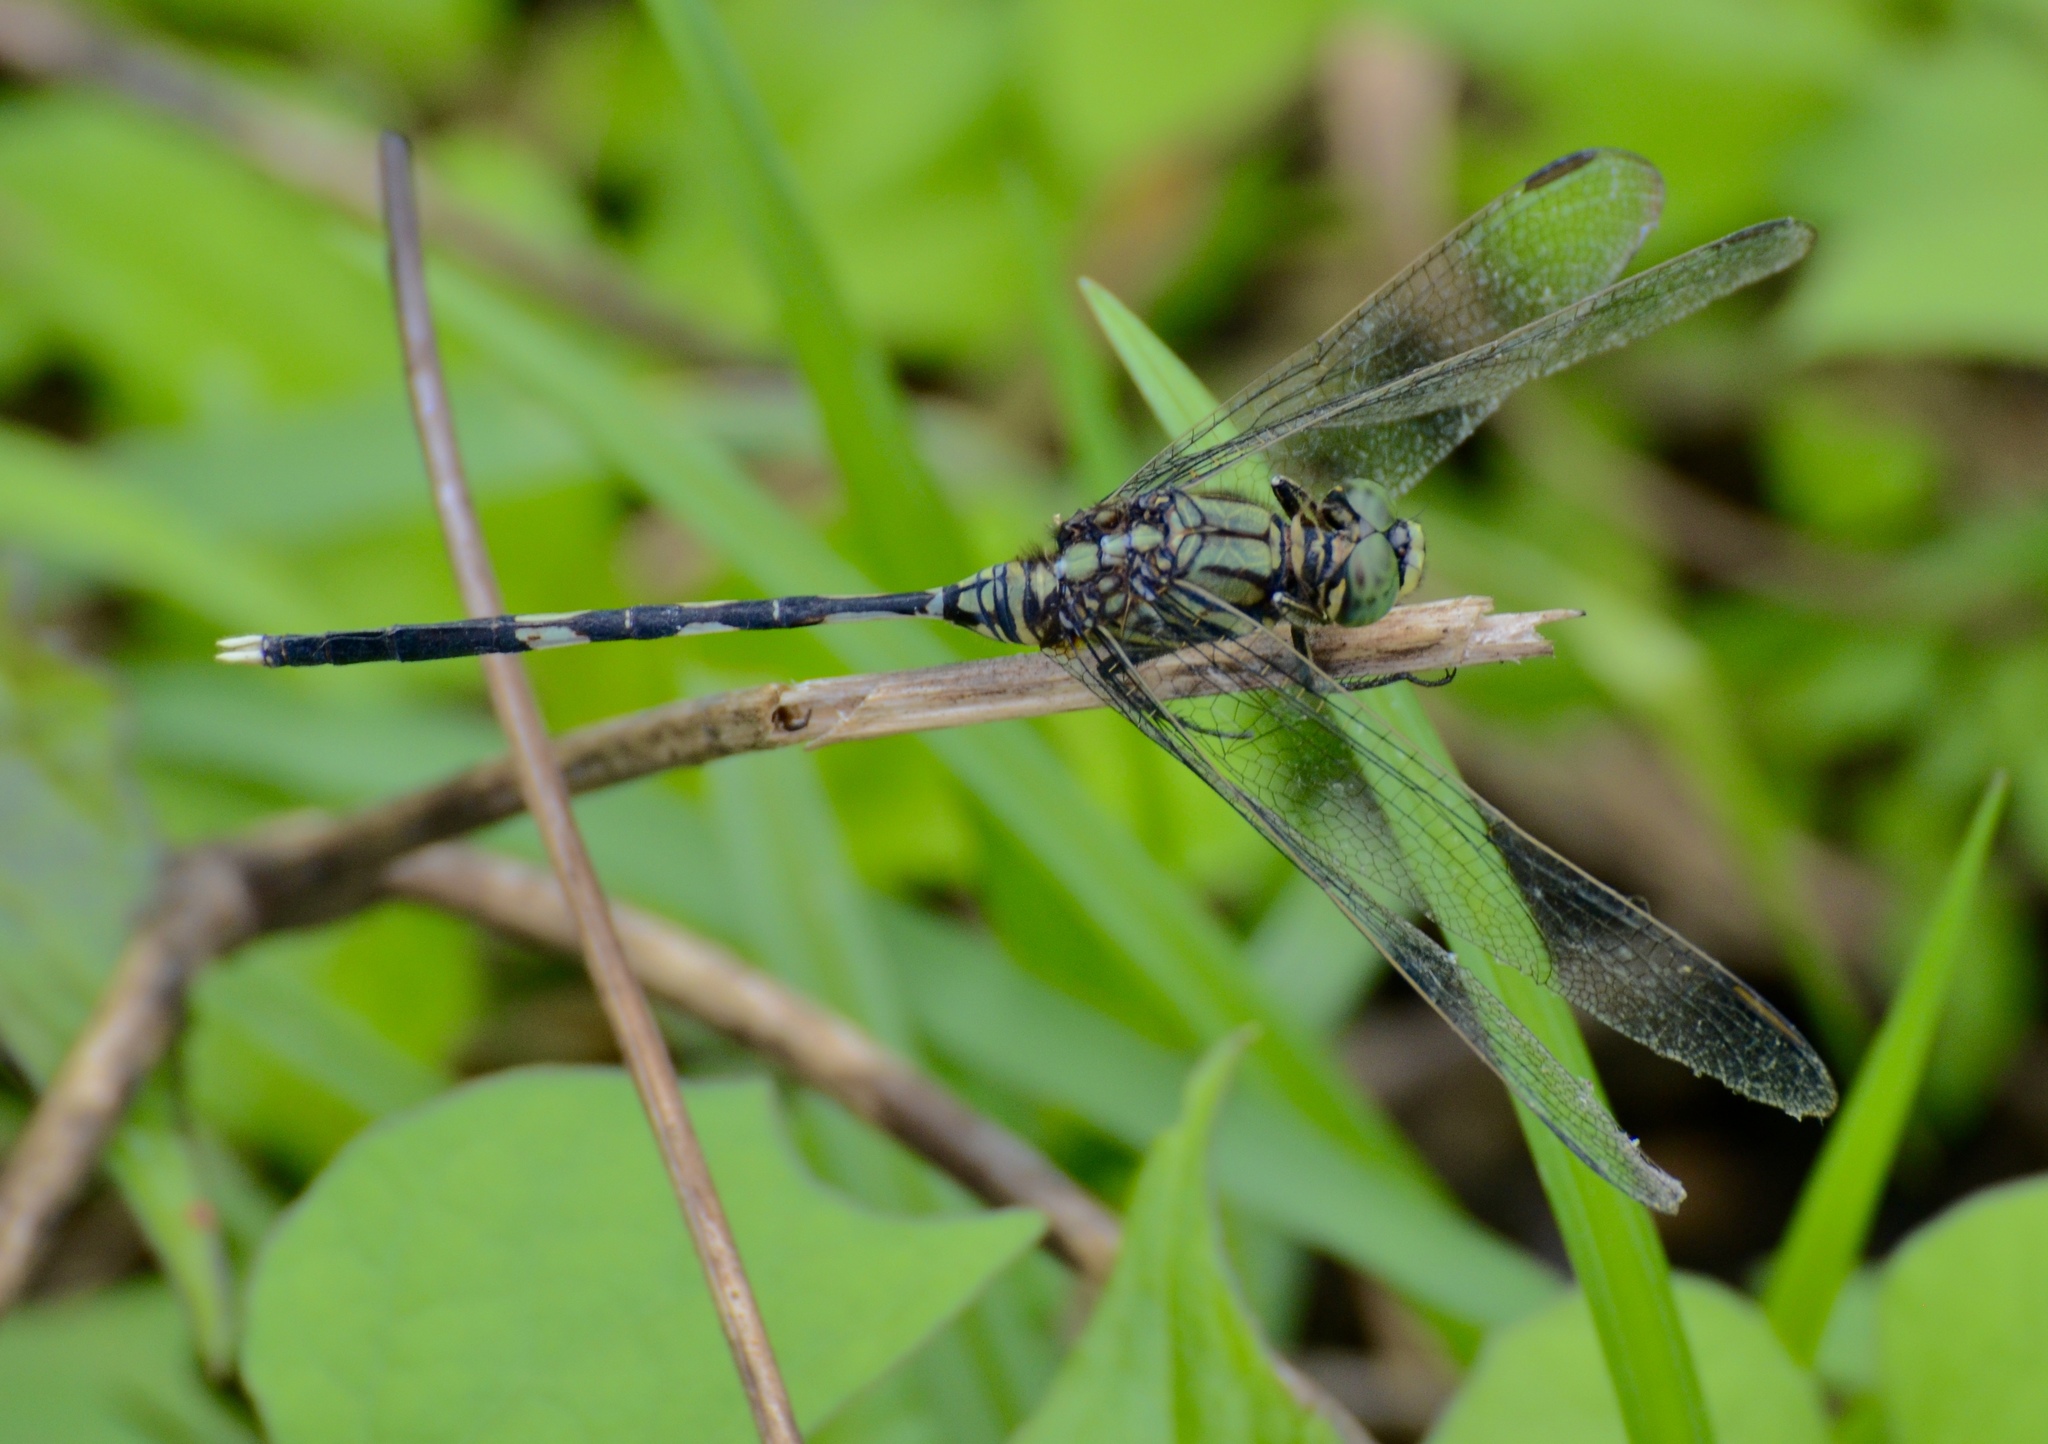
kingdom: Animalia
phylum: Arthropoda
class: Insecta
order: Odonata
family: Libellulidae
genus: Orthetrum
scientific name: Orthetrum sabina
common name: Slender skimmer
